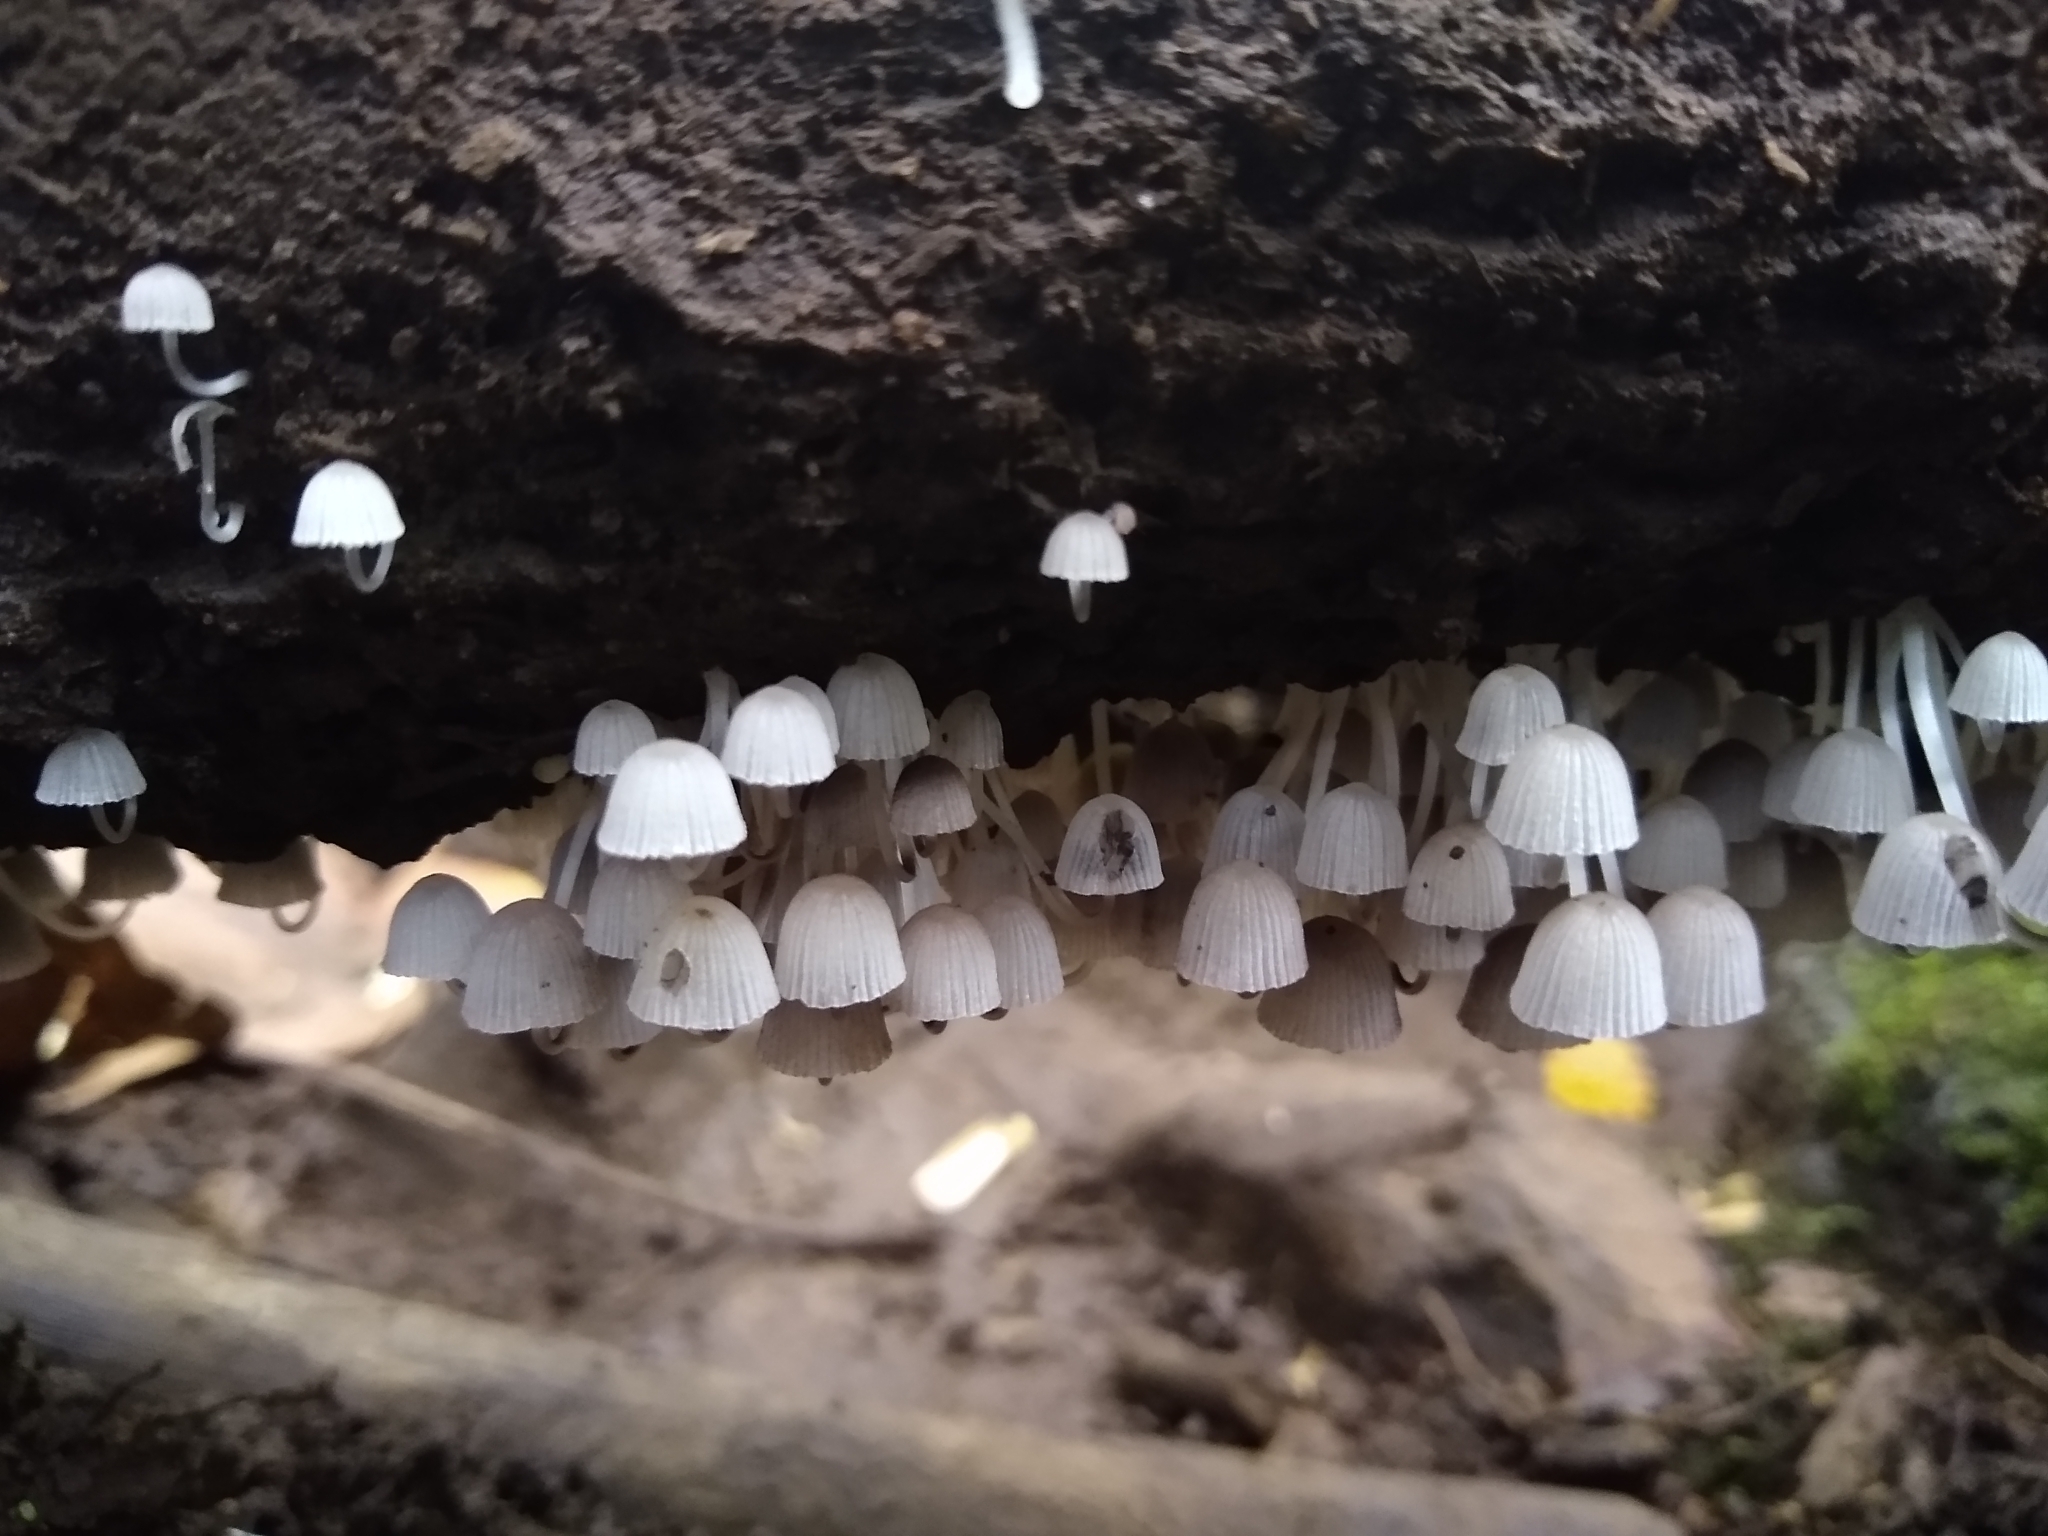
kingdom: Fungi
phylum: Basidiomycota
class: Agaricomycetes
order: Agaricales
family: Psathyrellaceae
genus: Coprinellus
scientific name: Coprinellus disseminatus
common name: Fairies' bonnets
